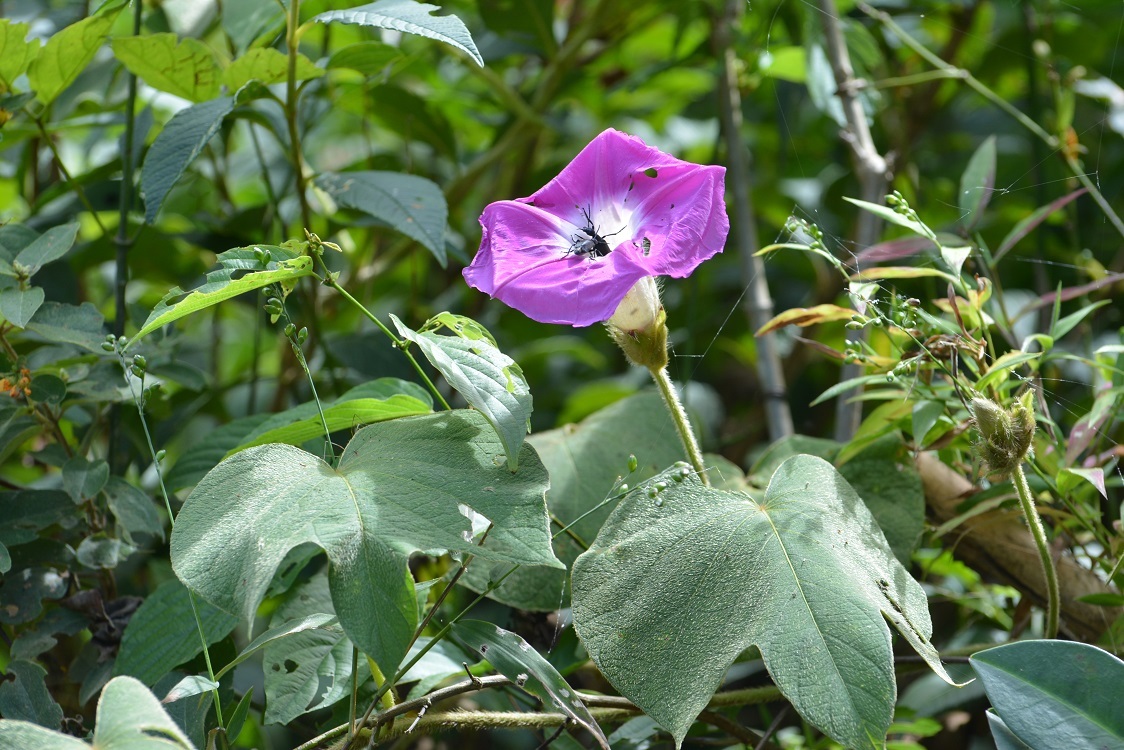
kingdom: Plantae
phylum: Tracheophyta
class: Magnoliopsida
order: Solanales
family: Convolvulaceae
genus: Ipomoea
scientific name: Ipomoea villifera
